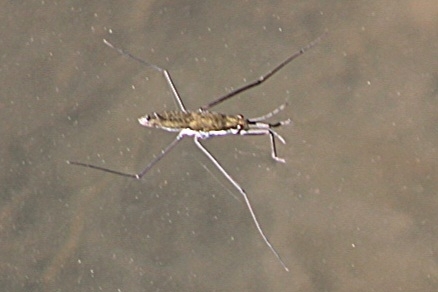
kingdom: Animalia
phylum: Arthropoda
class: Insecta
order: Hemiptera
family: Gerridae
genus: Aquarius
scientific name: Aquarius remigis
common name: Common water strider
